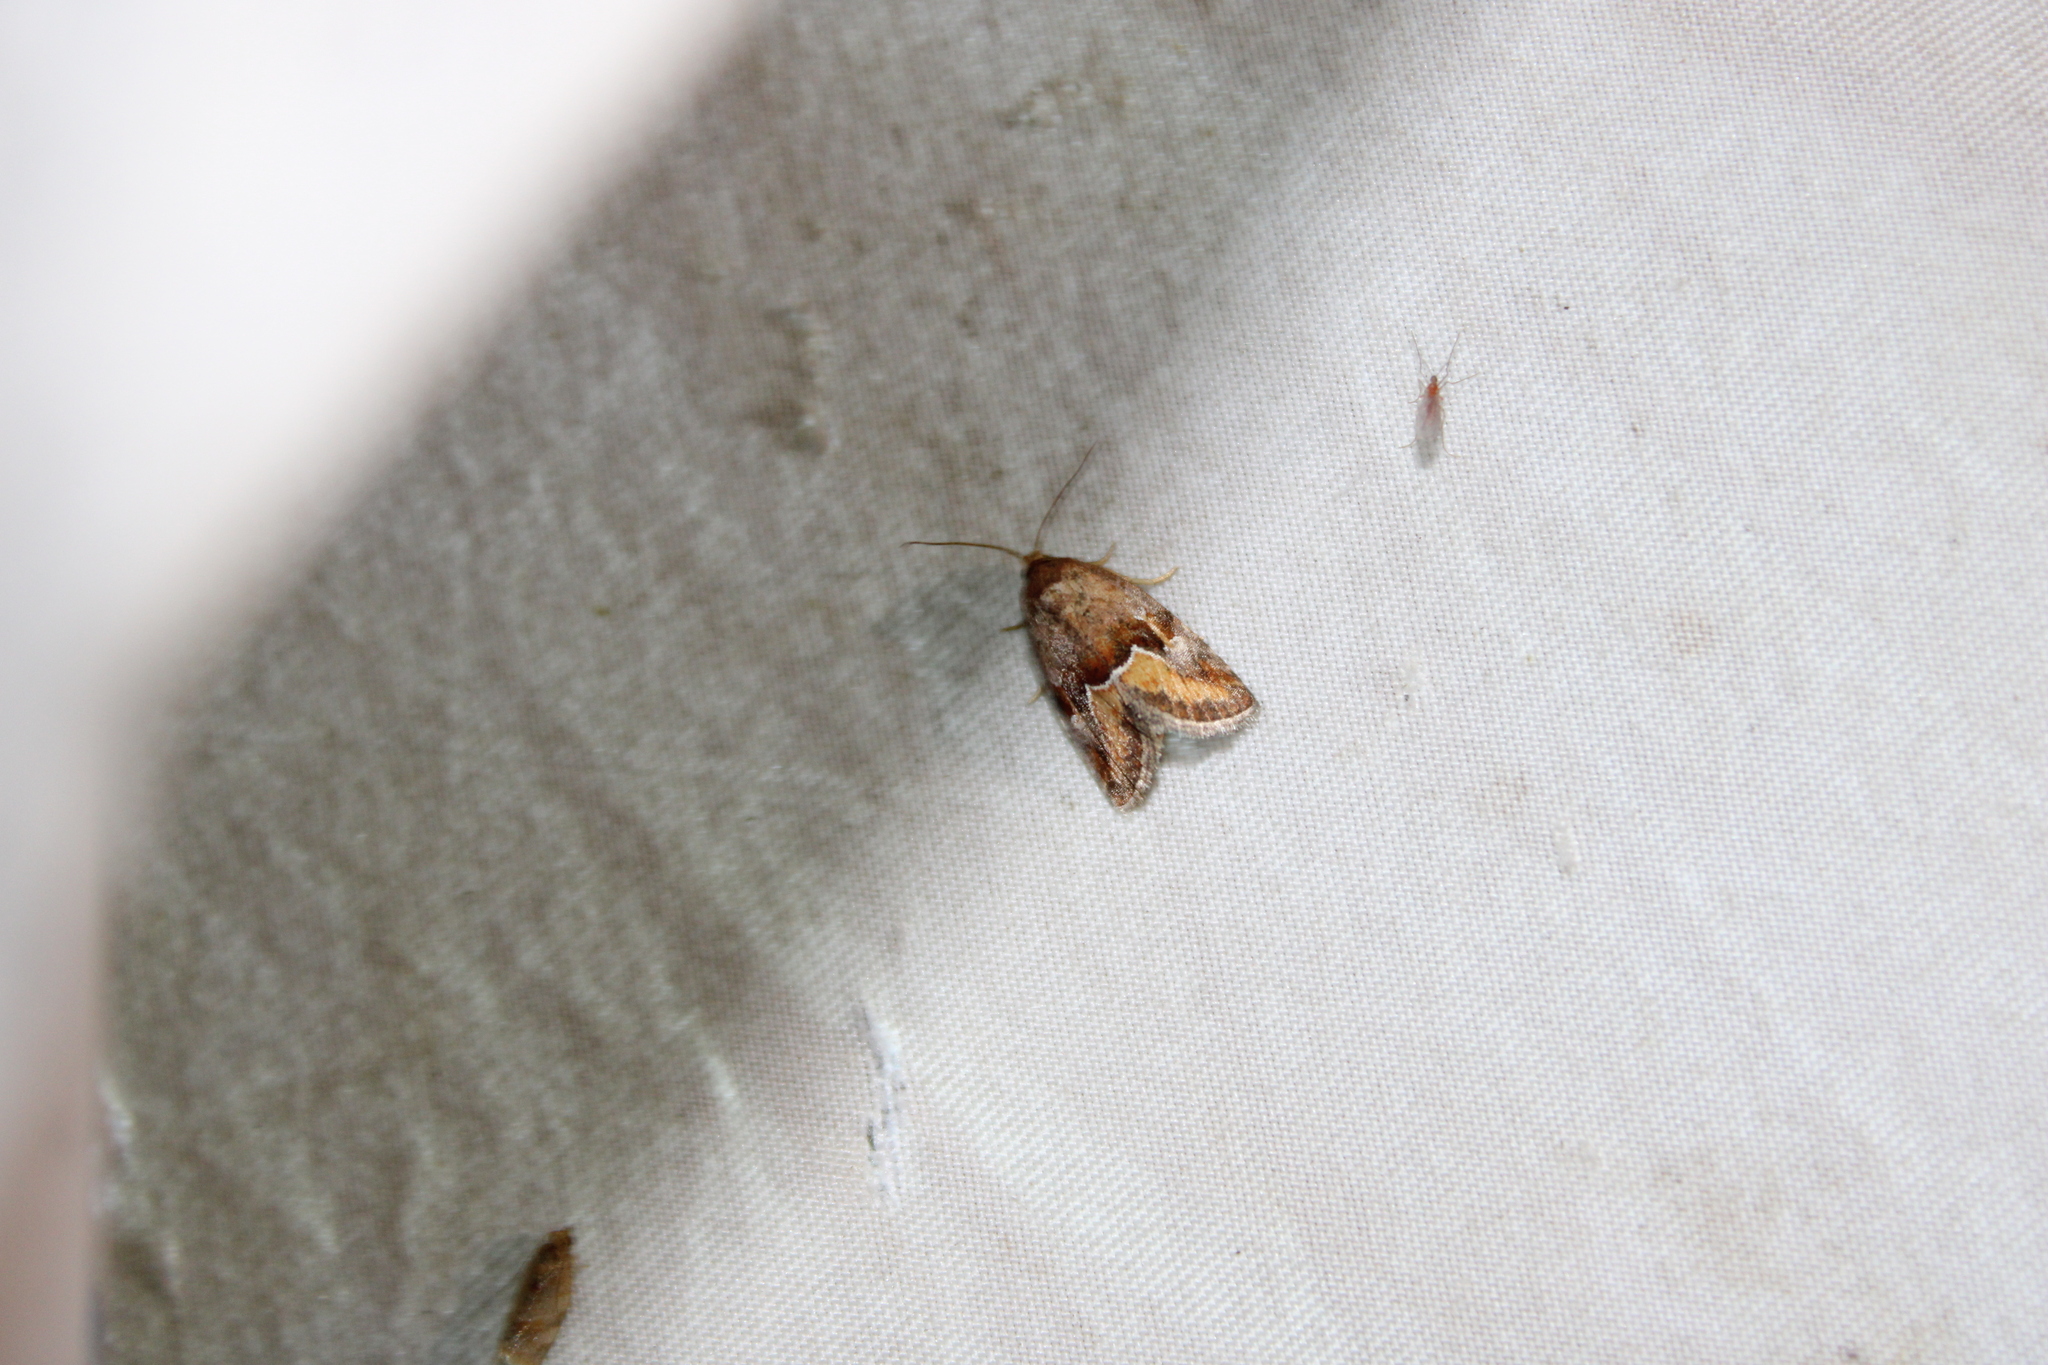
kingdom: Animalia
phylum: Arthropoda
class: Insecta
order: Lepidoptera
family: Noctuidae
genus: Deltote
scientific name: Deltote bellicula
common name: Bog glyph
